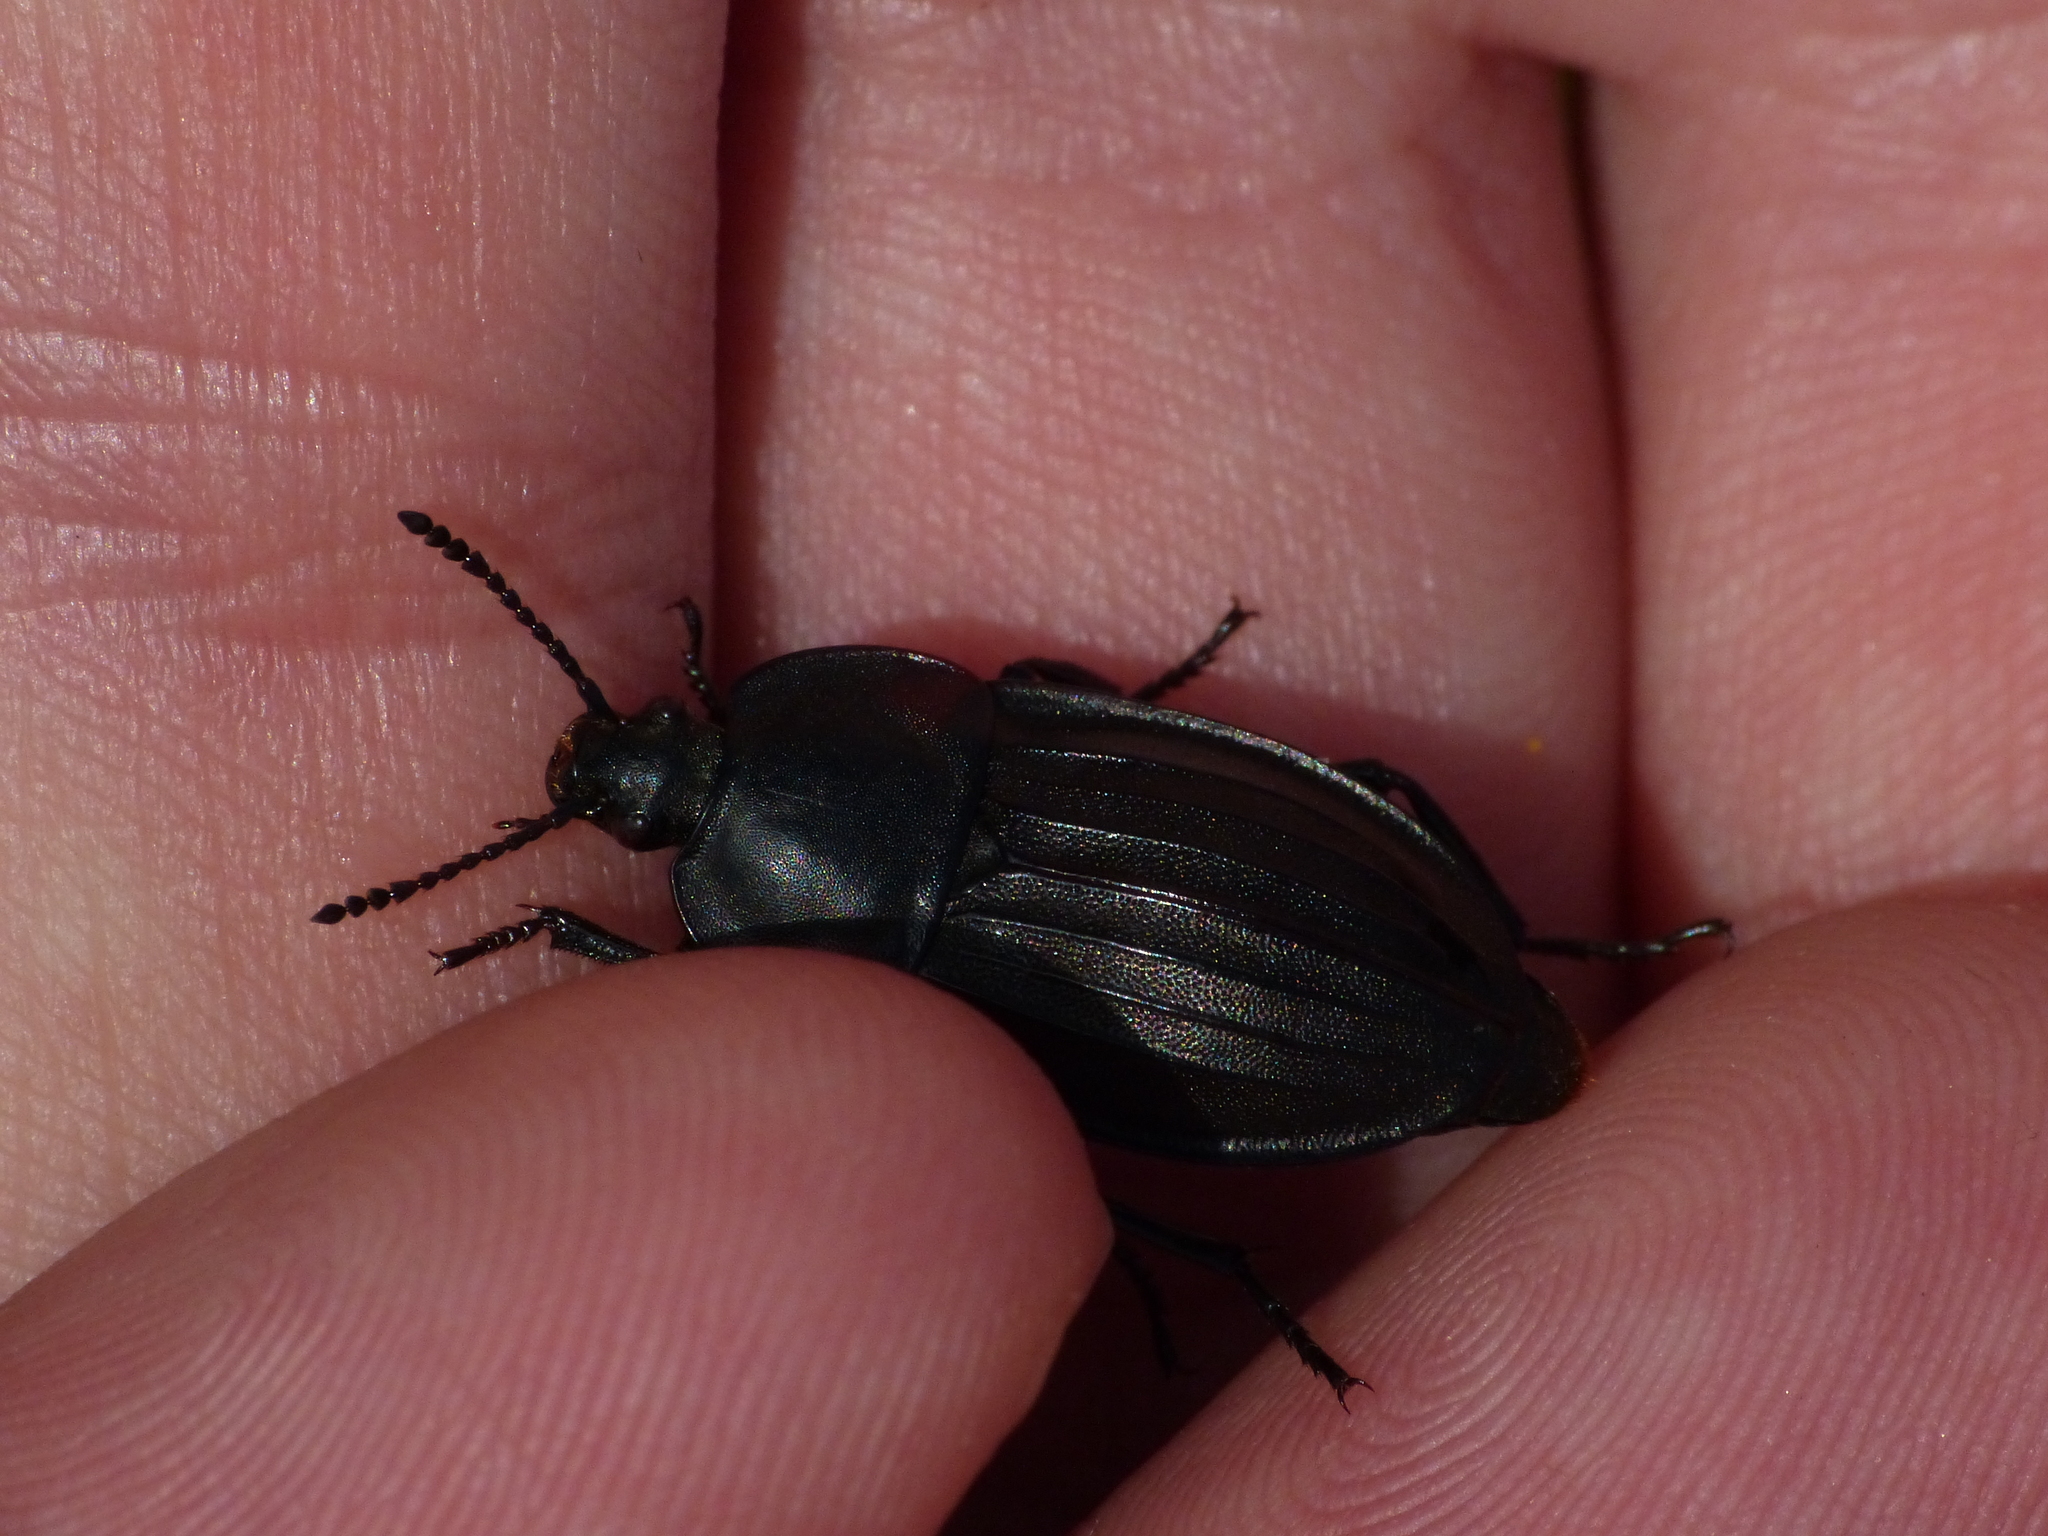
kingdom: Animalia
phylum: Arthropoda
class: Insecta
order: Coleoptera
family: Staphylinidae
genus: Silpha
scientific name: Silpha tristis
